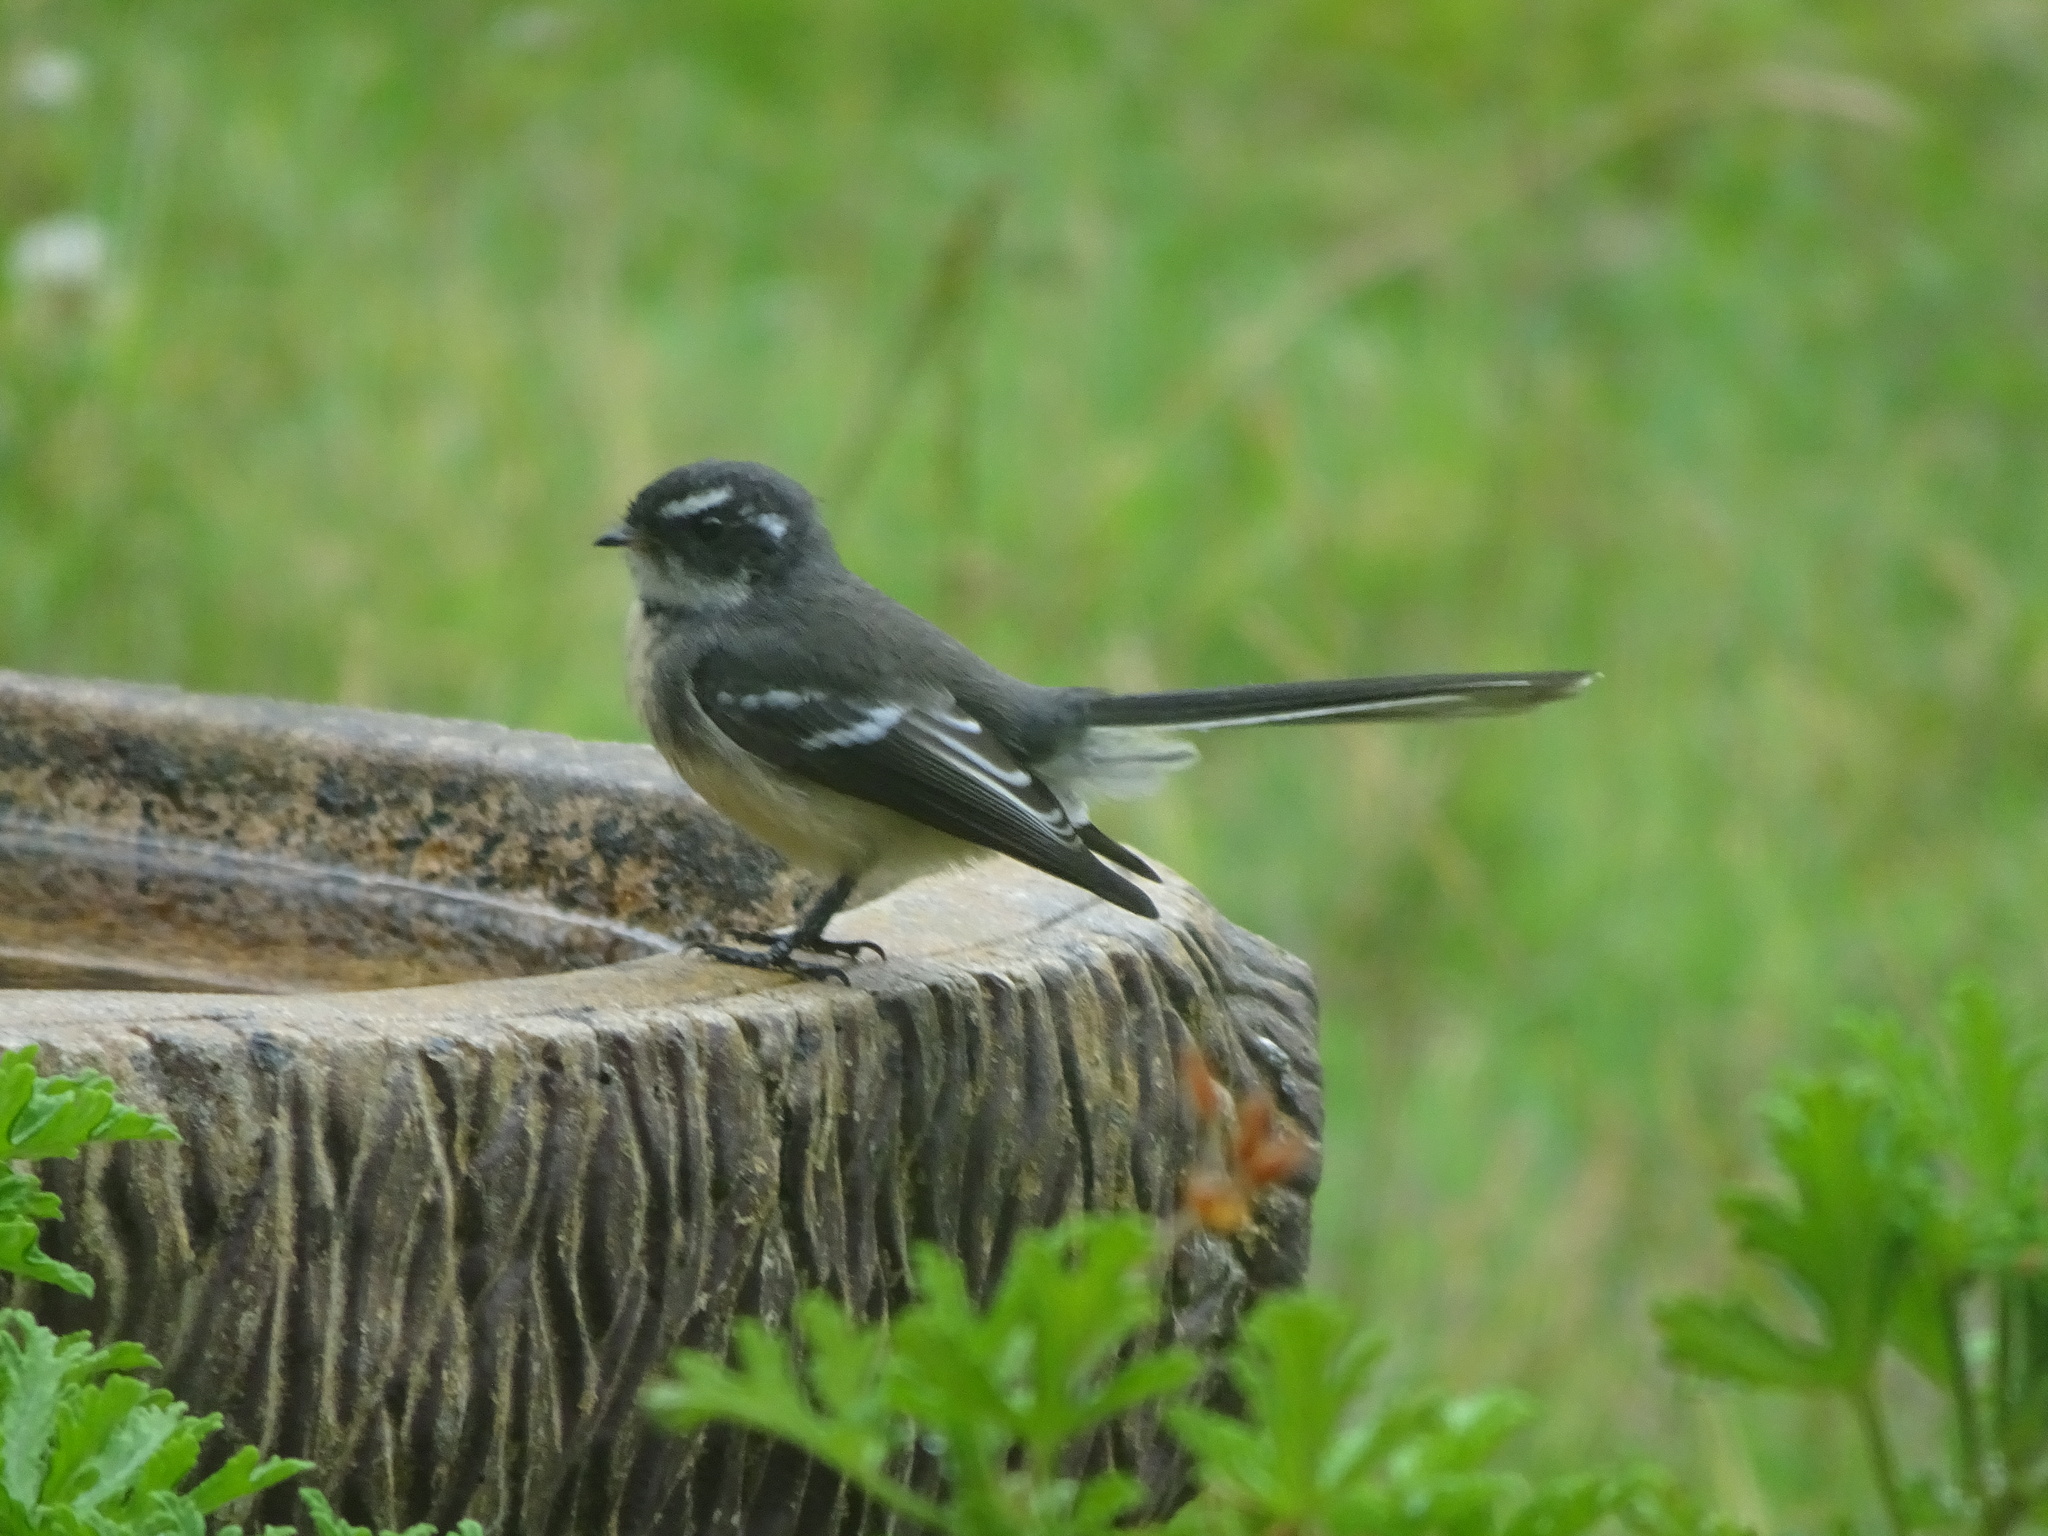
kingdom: Animalia
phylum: Chordata
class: Aves
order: Passeriformes
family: Rhipiduridae
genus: Rhipidura
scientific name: Rhipidura albiscapa
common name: Grey fantail
